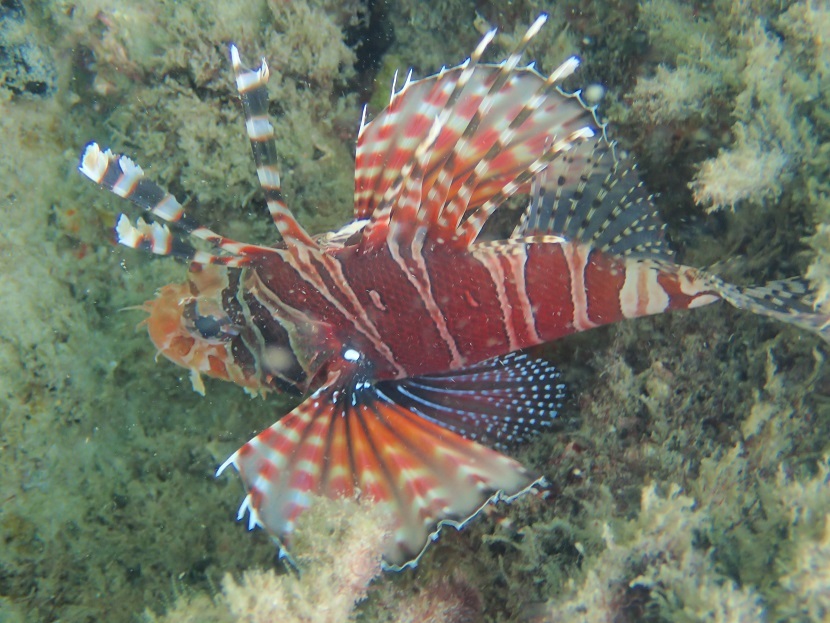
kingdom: Animalia
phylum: Chordata
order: Scorpaeniformes
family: Scorpaenidae
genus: Dendrochirus
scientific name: Dendrochirus zebra
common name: Zebra lionfish
